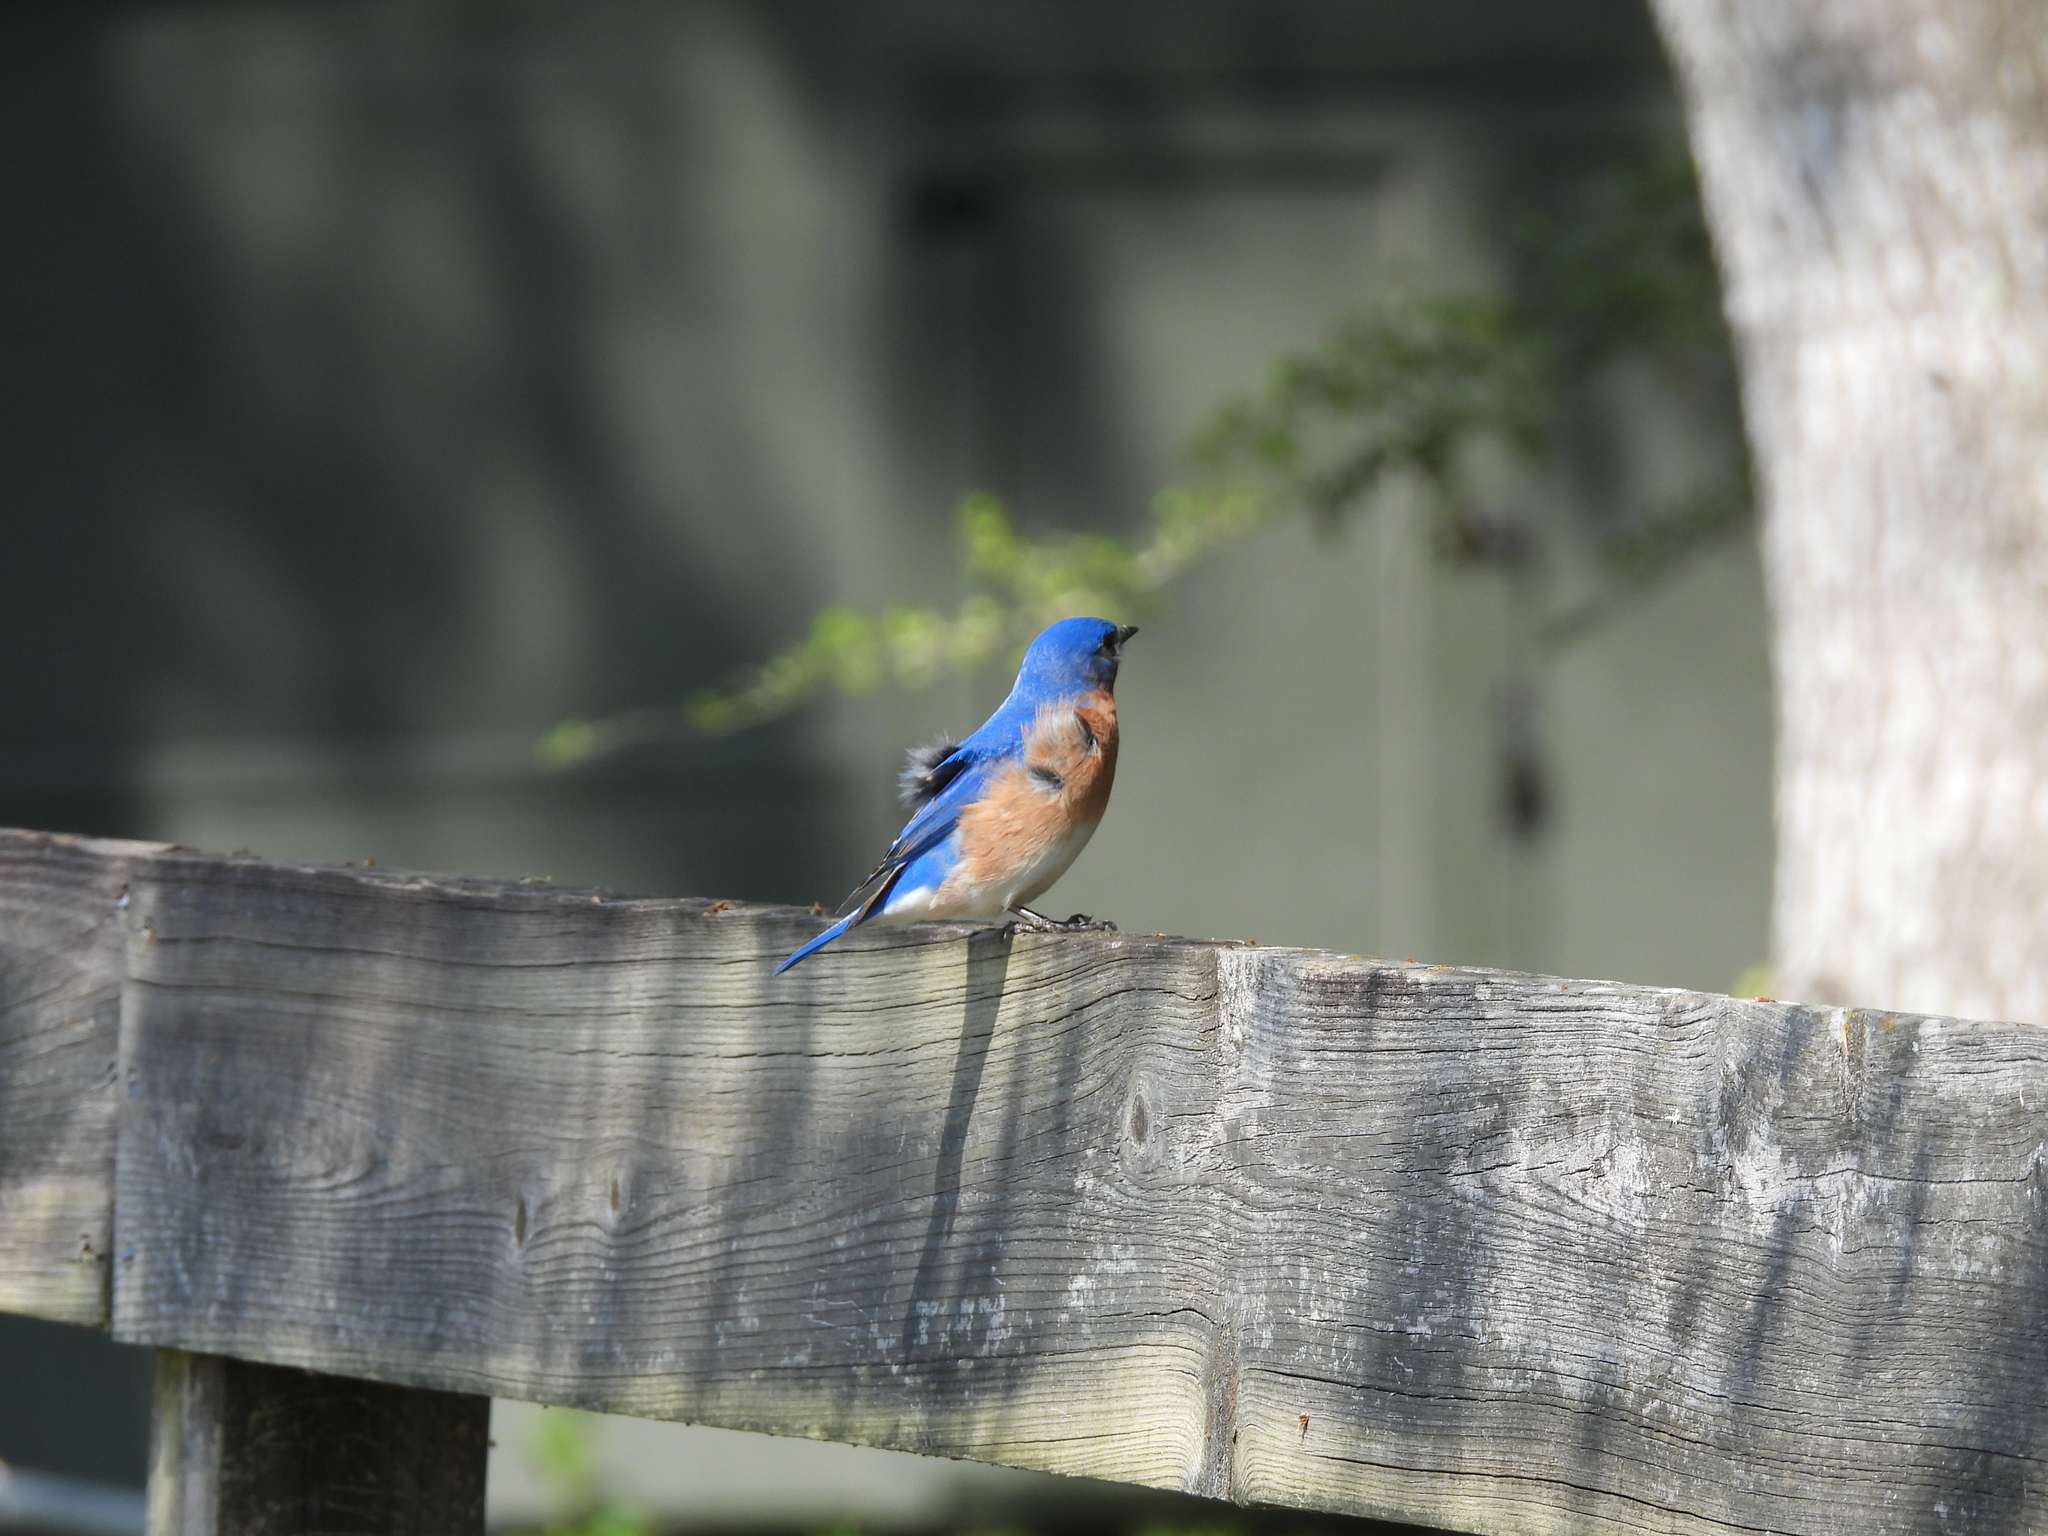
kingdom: Animalia
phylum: Chordata
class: Aves
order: Passeriformes
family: Turdidae
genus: Sialia
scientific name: Sialia sialis
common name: Eastern bluebird
